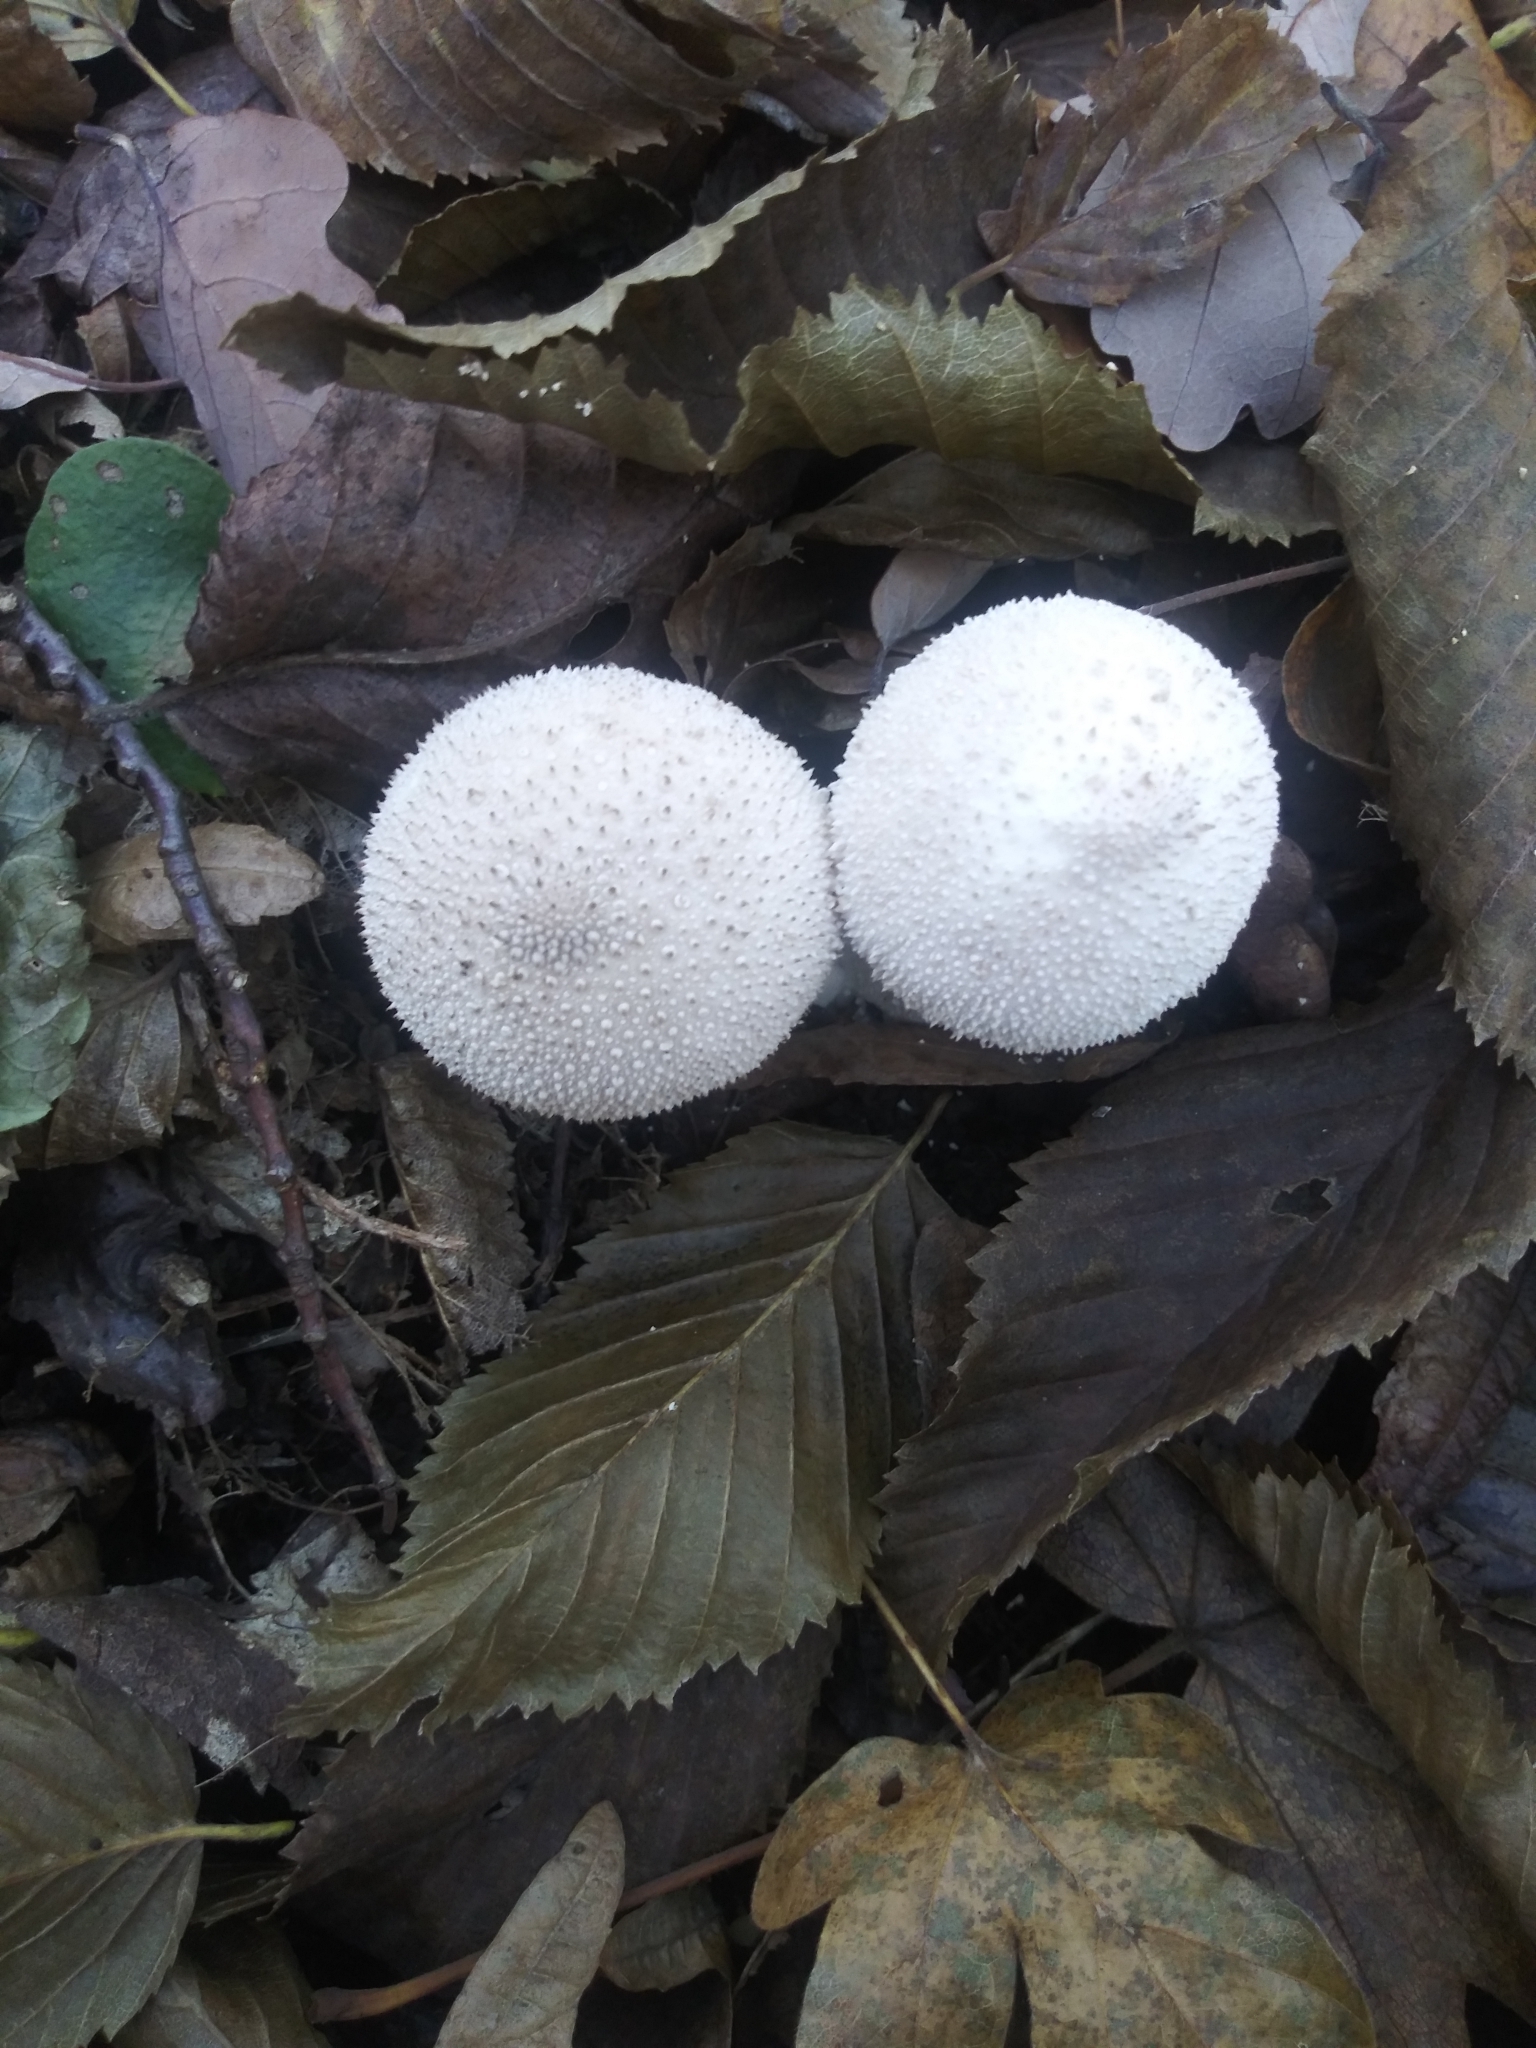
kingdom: Fungi
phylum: Basidiomycota
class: Agaricomycetes
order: Agaricales
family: Lycoperdaceae
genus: Lycoperdon
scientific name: Lycoperdon perlatum
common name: Common puffball
